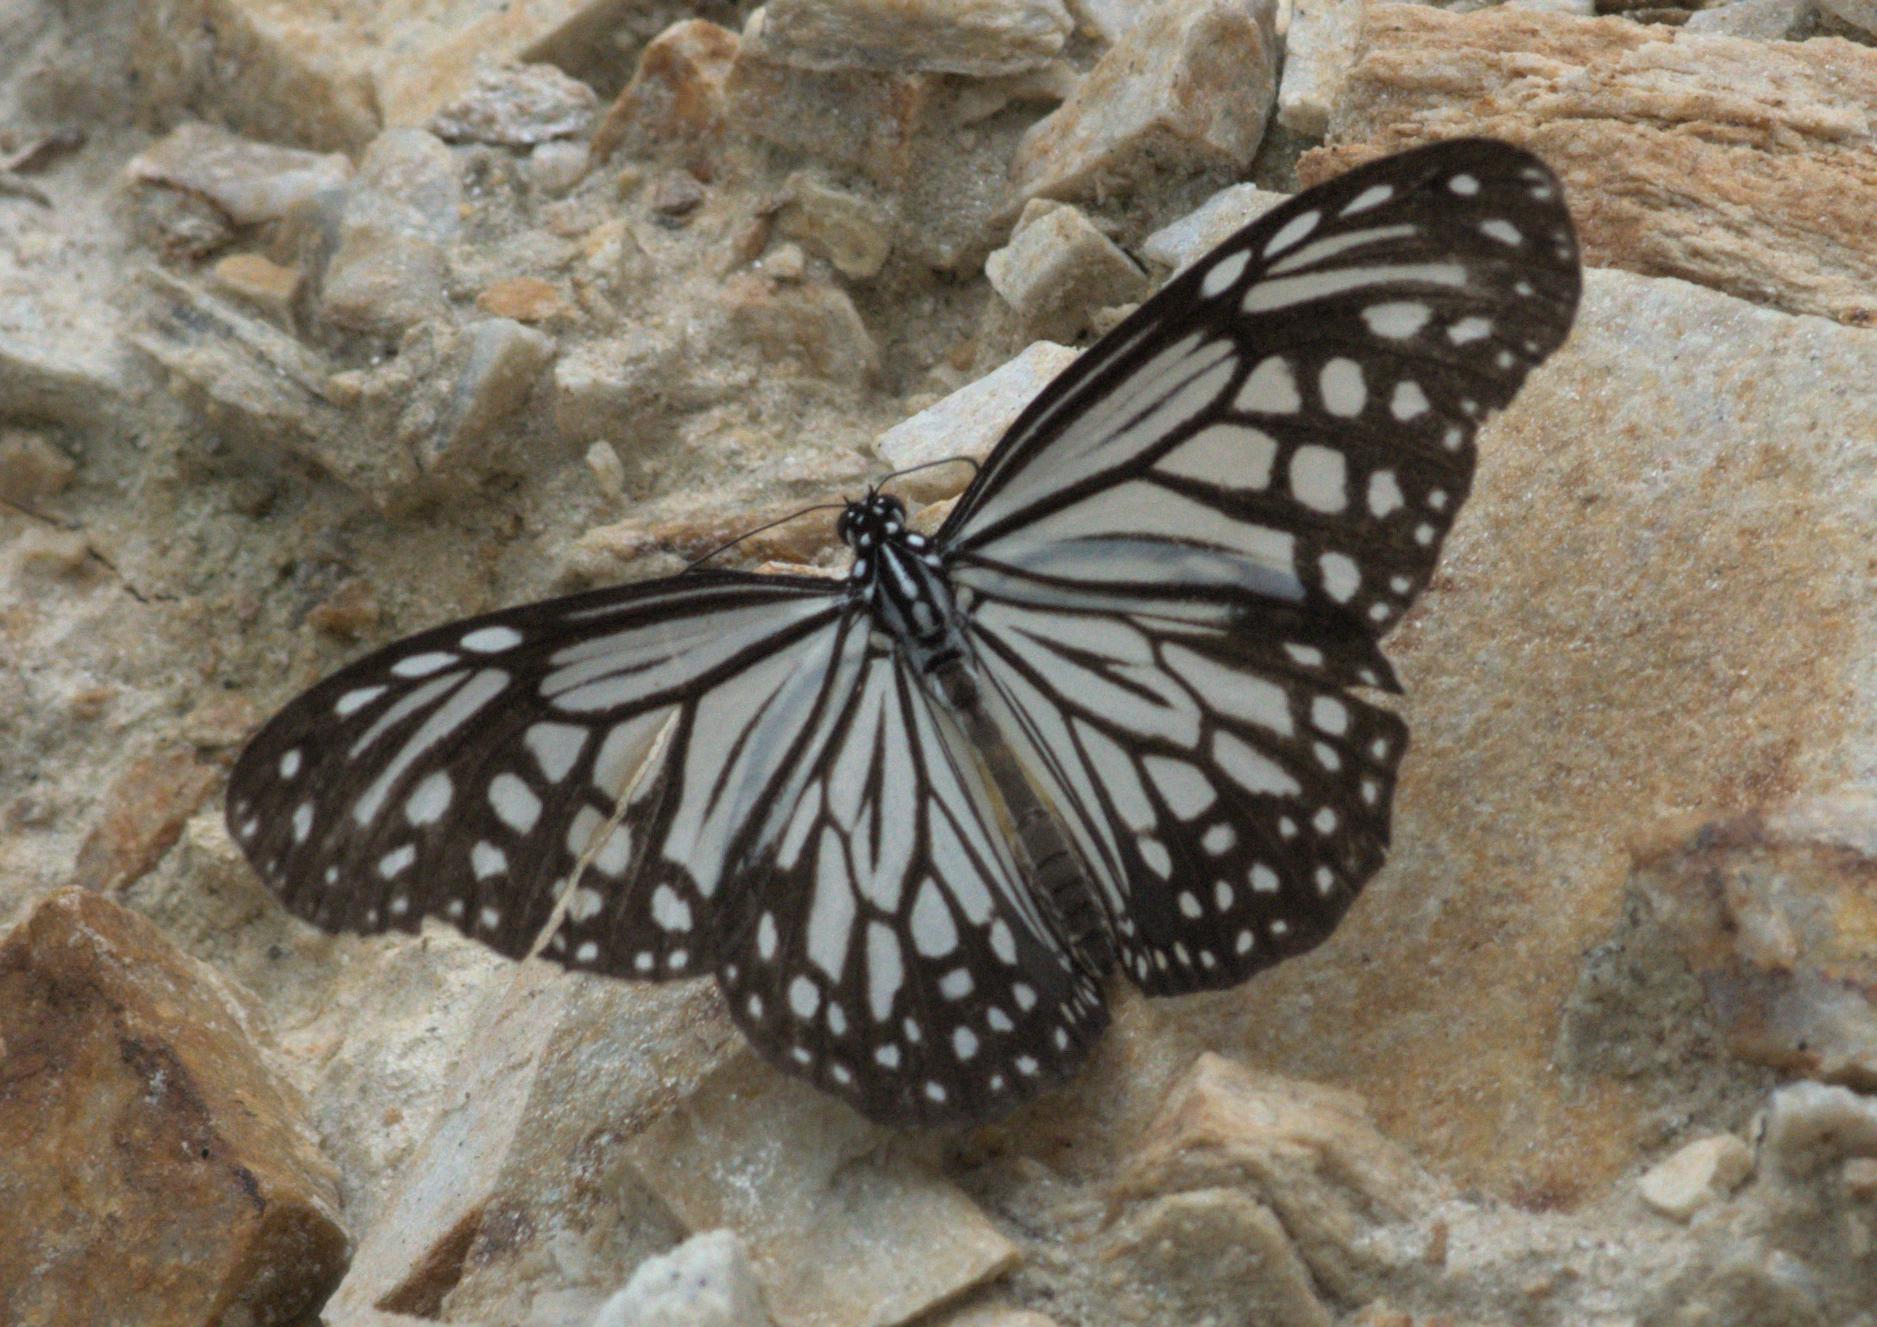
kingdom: Animalia
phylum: Arthropoda
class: Insecta
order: Lepidoptera
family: Nymphalidae
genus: Parantica
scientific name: Parantica aglea
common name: Glassy tiger
